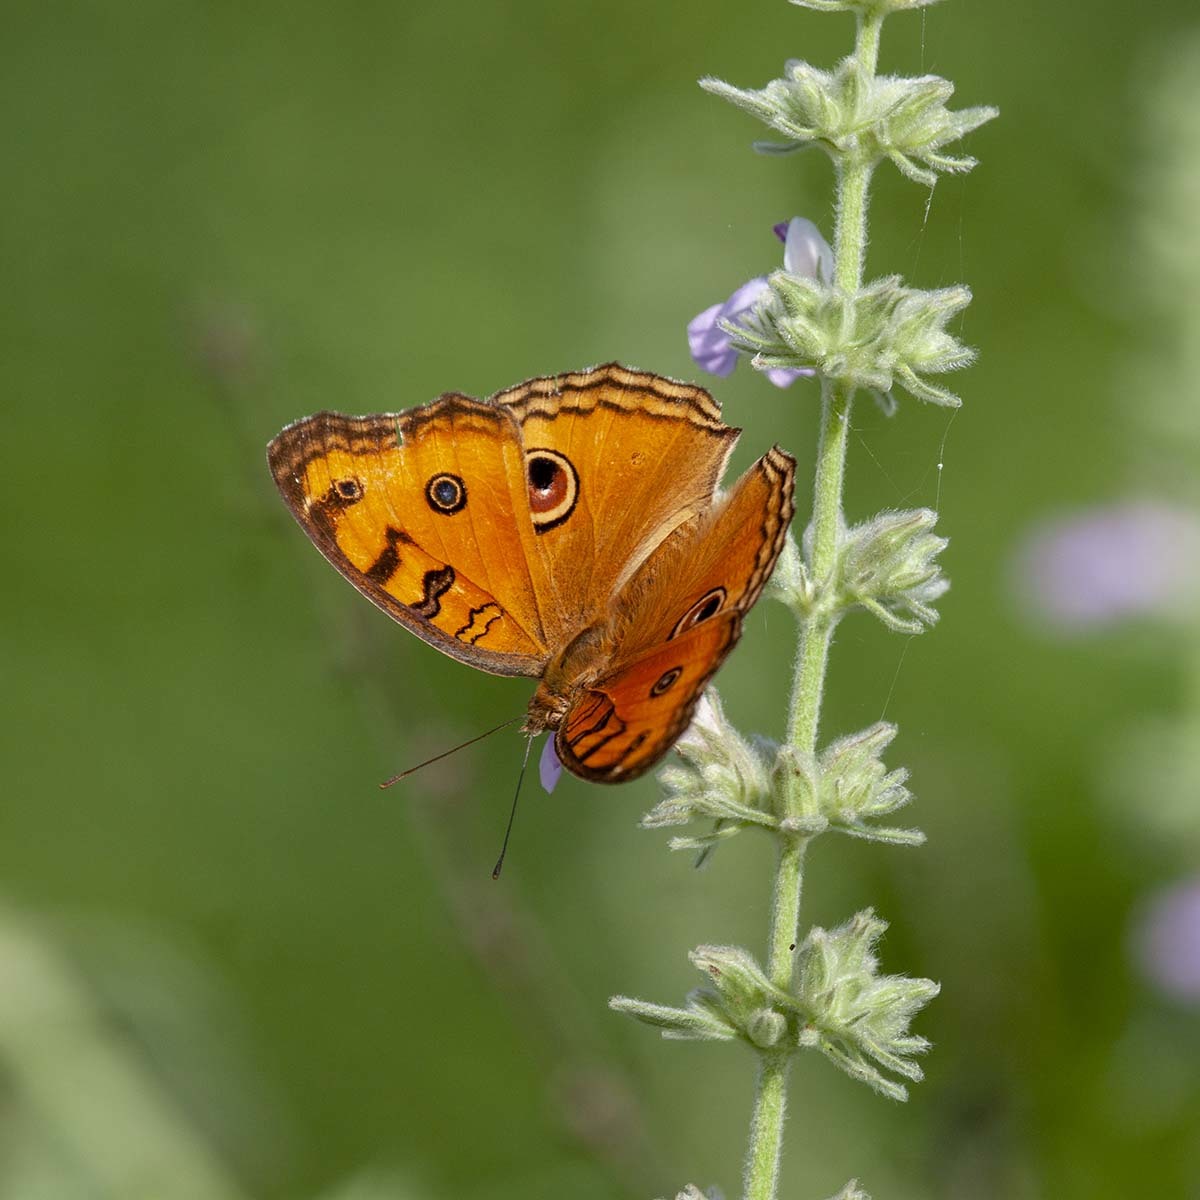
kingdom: Animalia
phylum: Arthropoda
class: Insecta
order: Lepidoptera
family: Nymphalidae
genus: Junonia
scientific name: Junonia almana
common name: Peacock pansy
